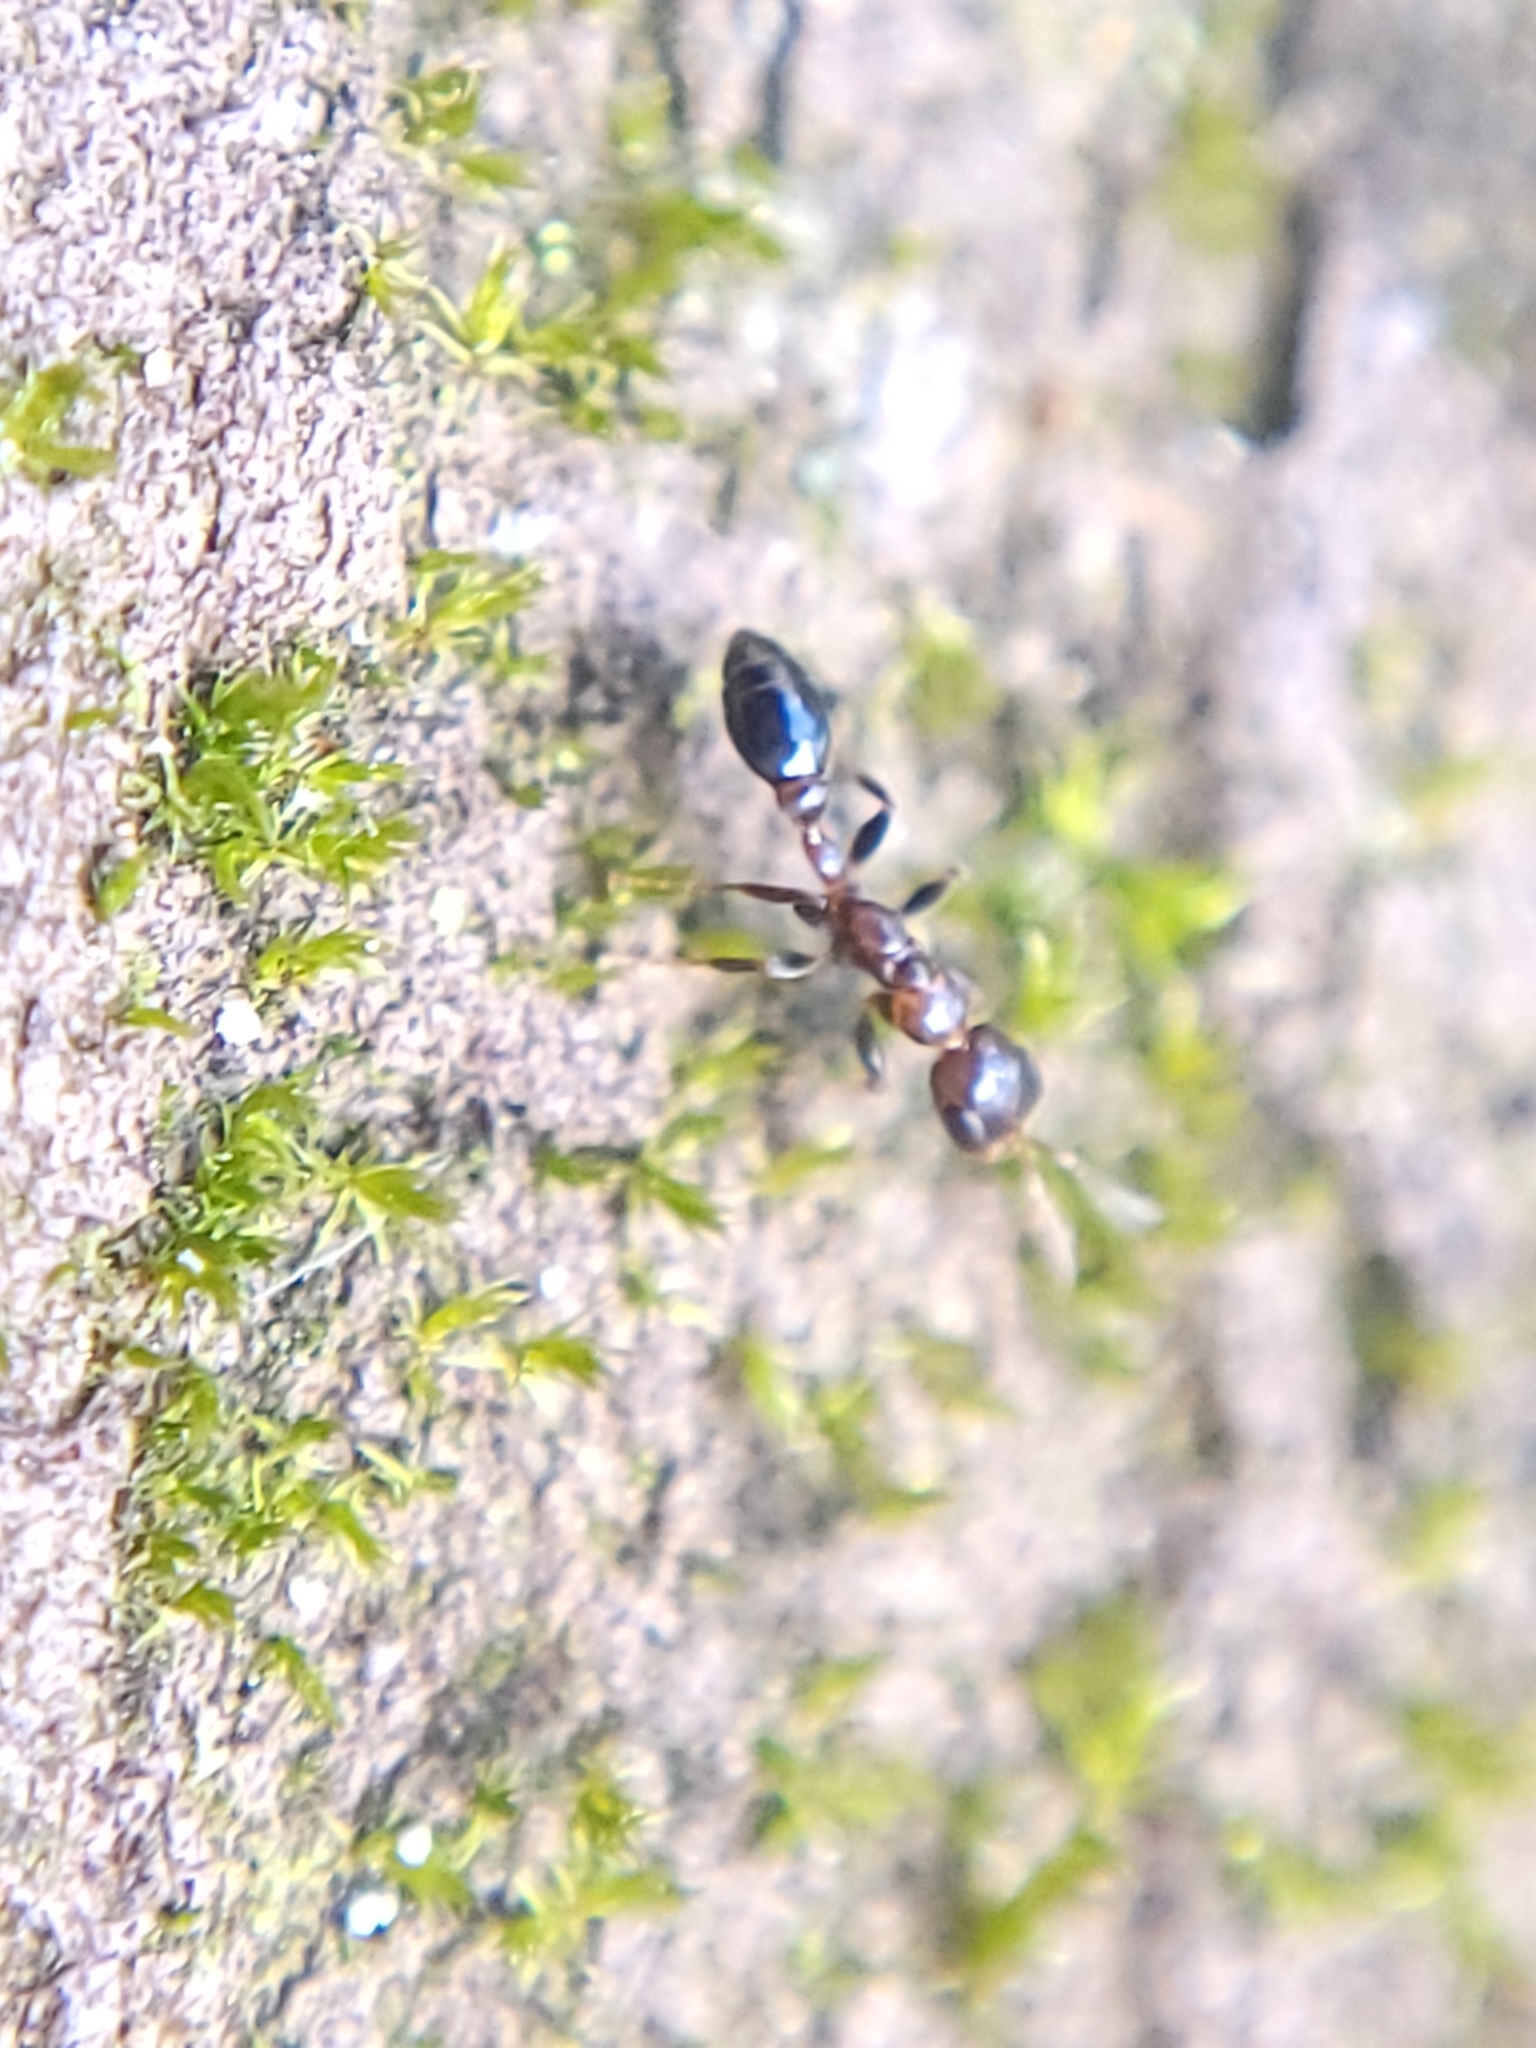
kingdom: Animalia
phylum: Arthropoda
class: Insecta
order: Hymenoptera
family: Formicidae
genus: Pseudomyrmex
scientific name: Pseudomyrmex ejectus
